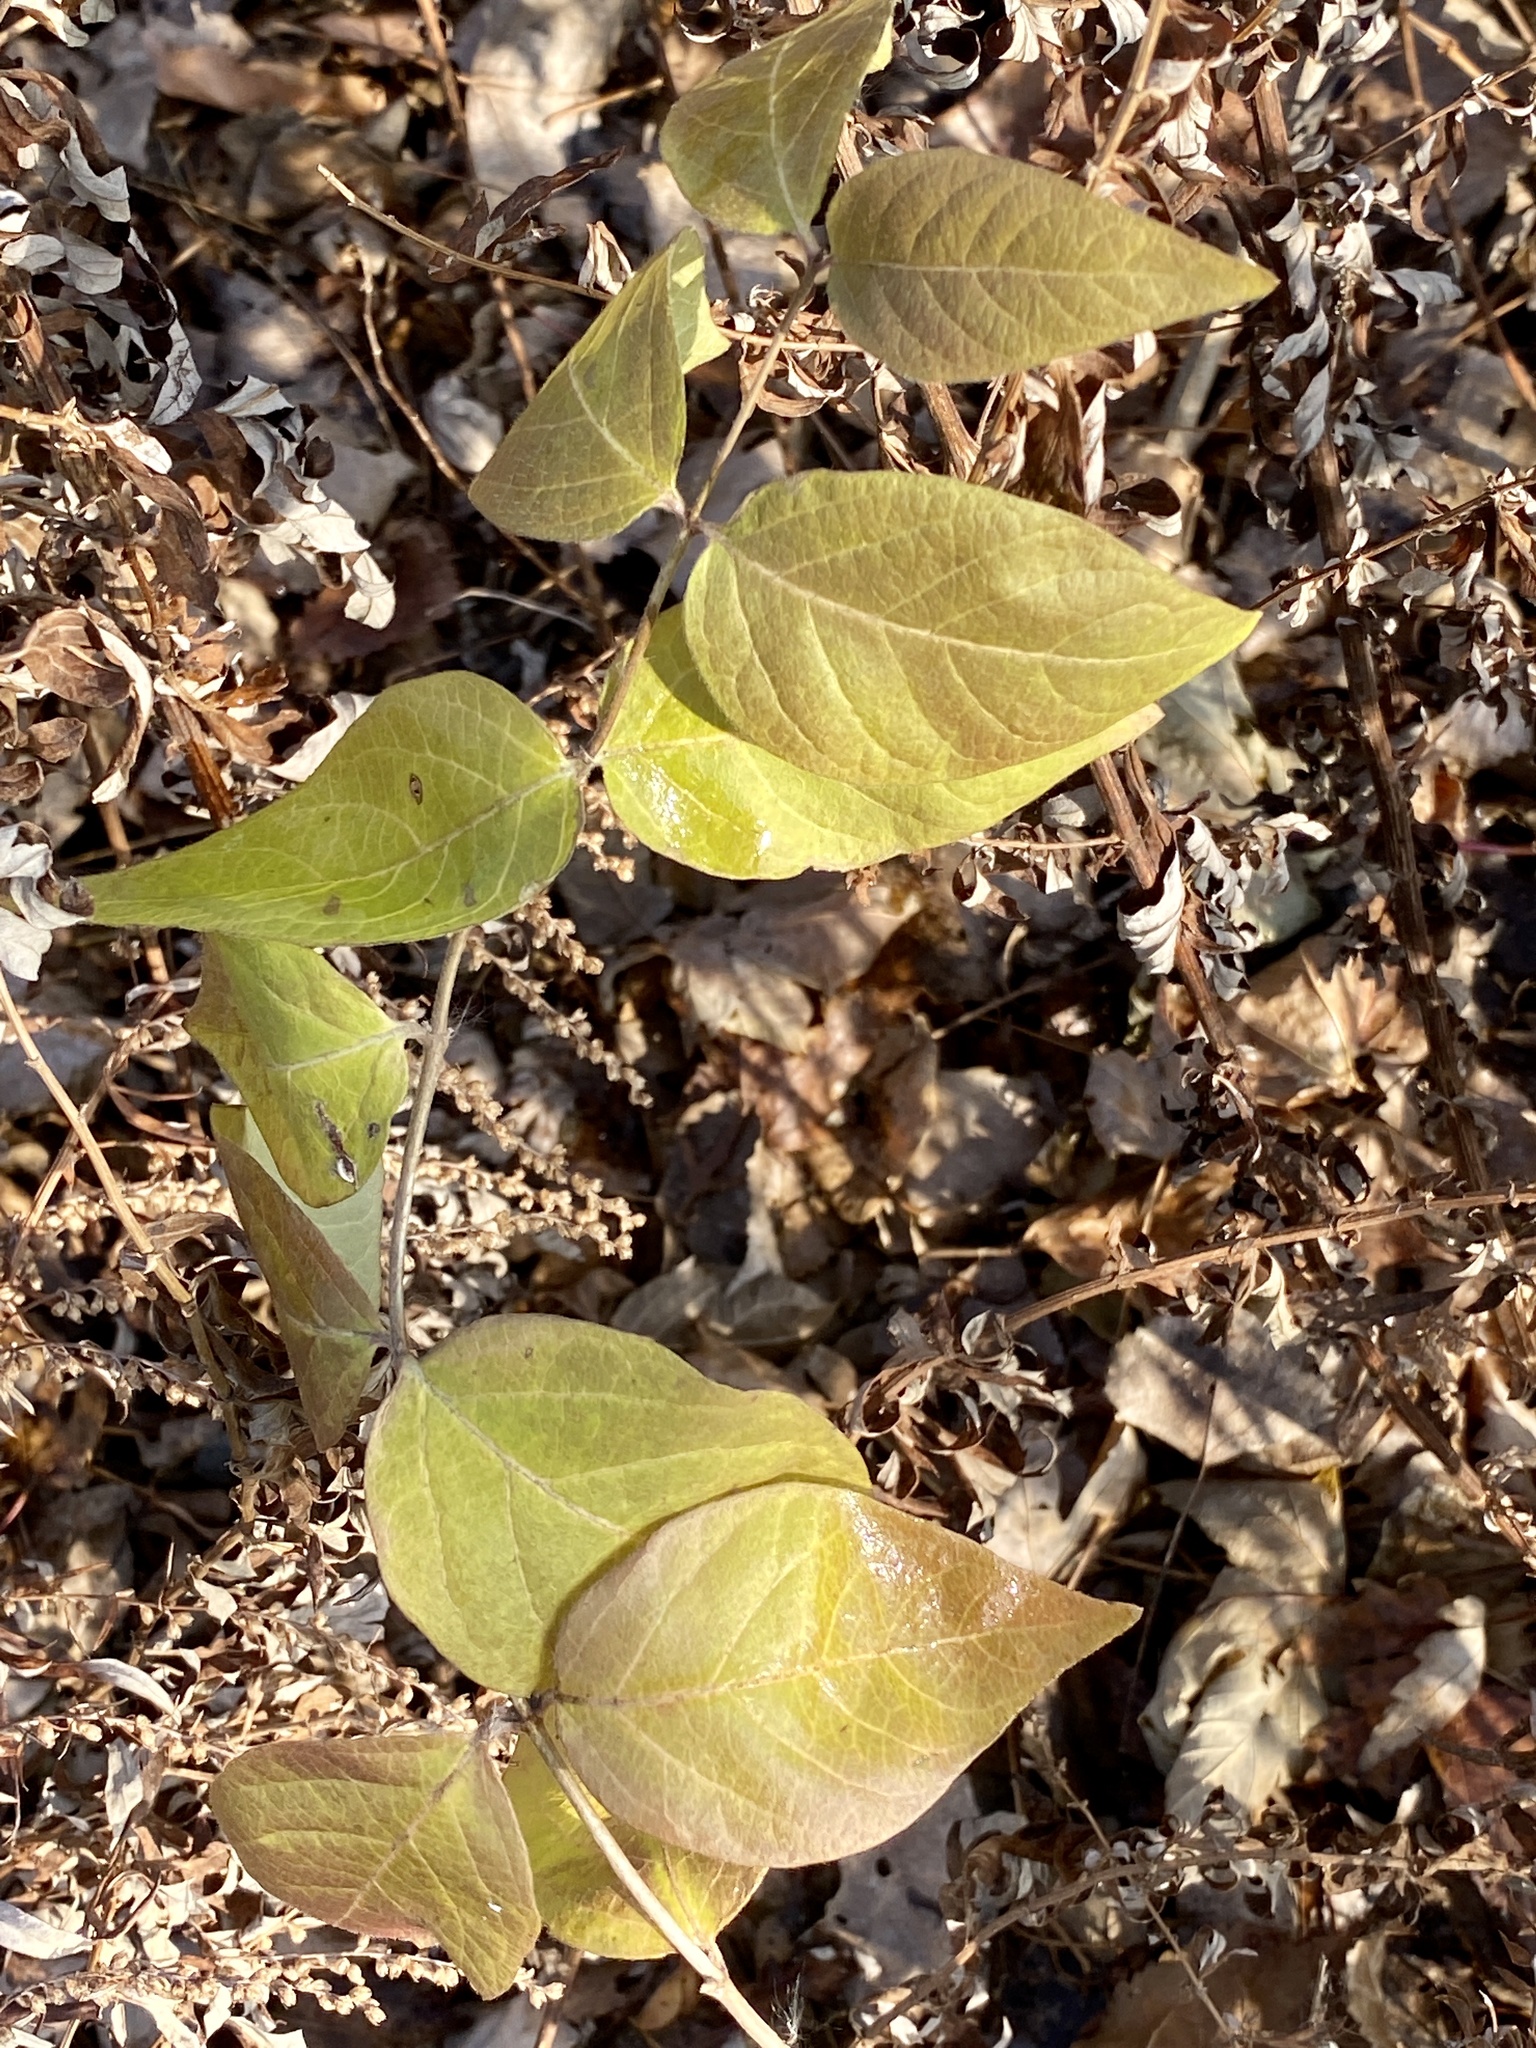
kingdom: Plantae
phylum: Tracheophyta
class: Magnoliopsida
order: Dipsacales
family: Caprifoliaceae
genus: Lonicera
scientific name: Lonicera maackii
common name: Amur honeysuckle
